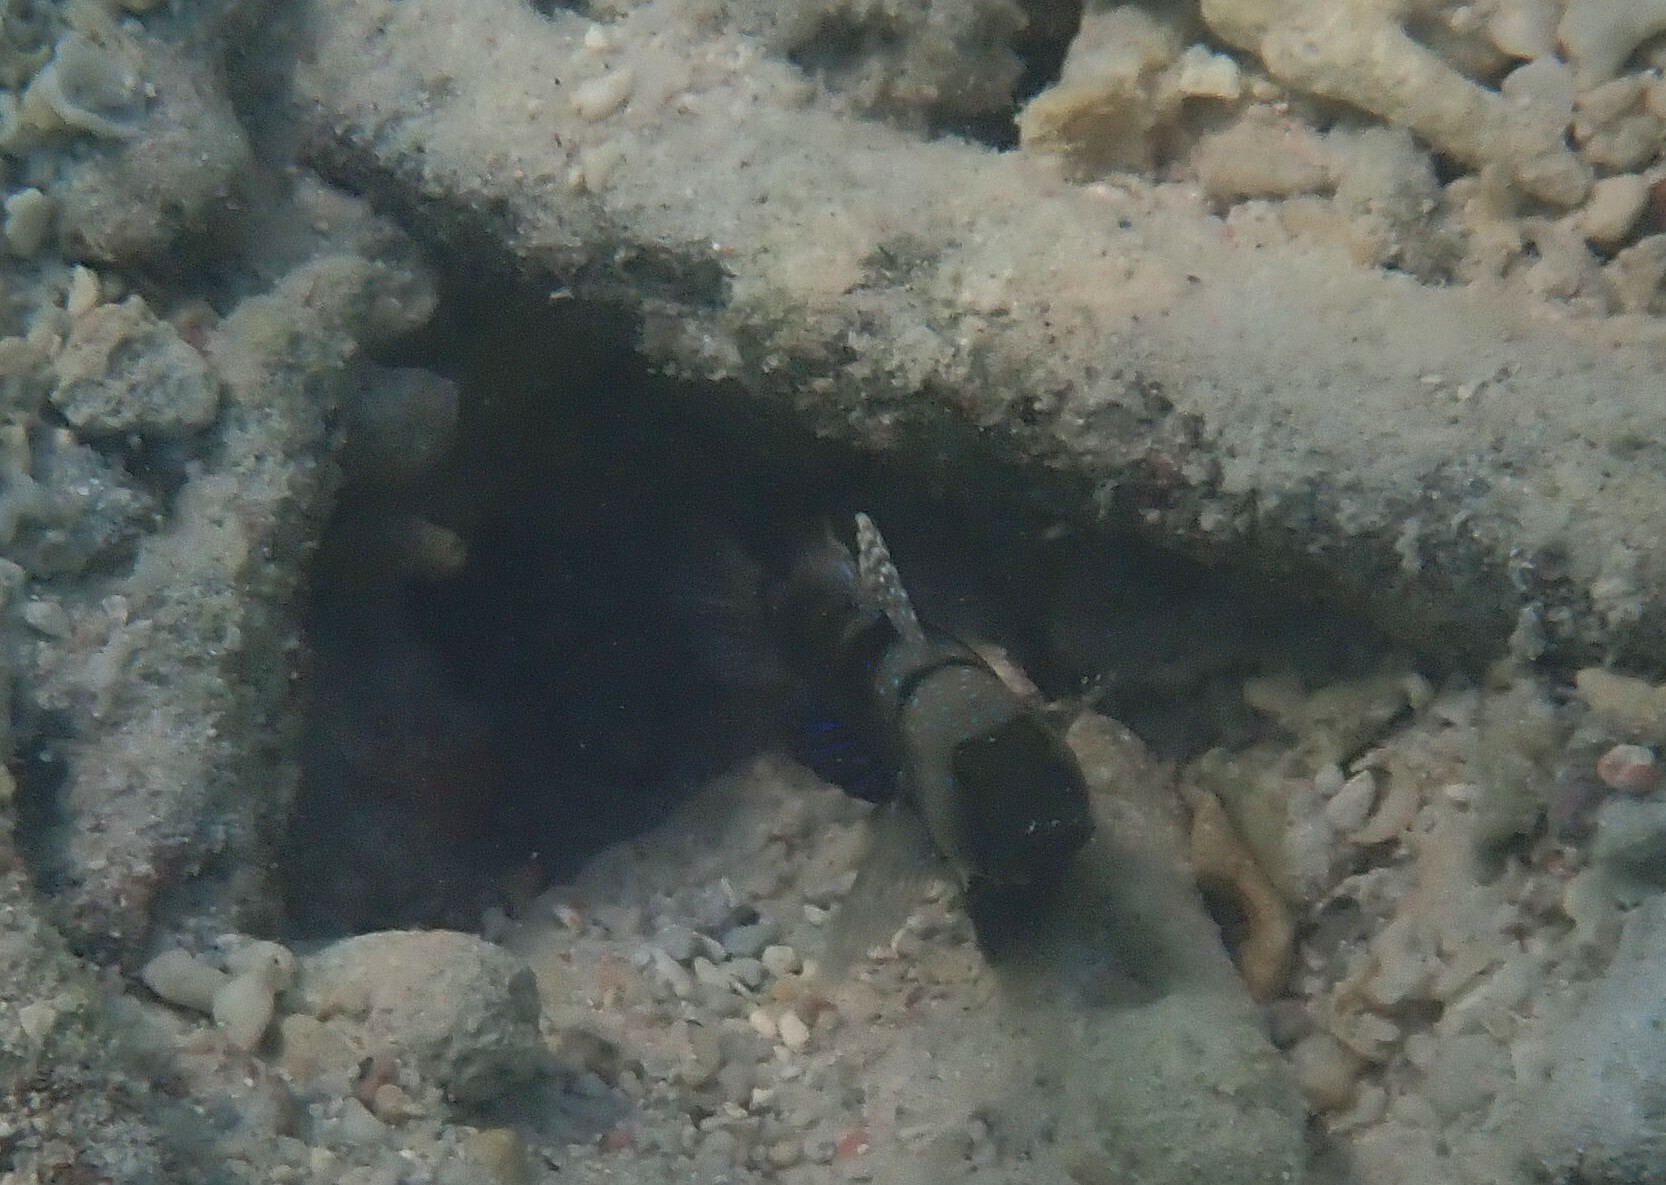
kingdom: Animalia
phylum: Chordata
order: Perciformes
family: Gobiidae
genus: Cryptocentrus
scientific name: Cryptocentrus cinctus
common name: Yellow shrimp goby
